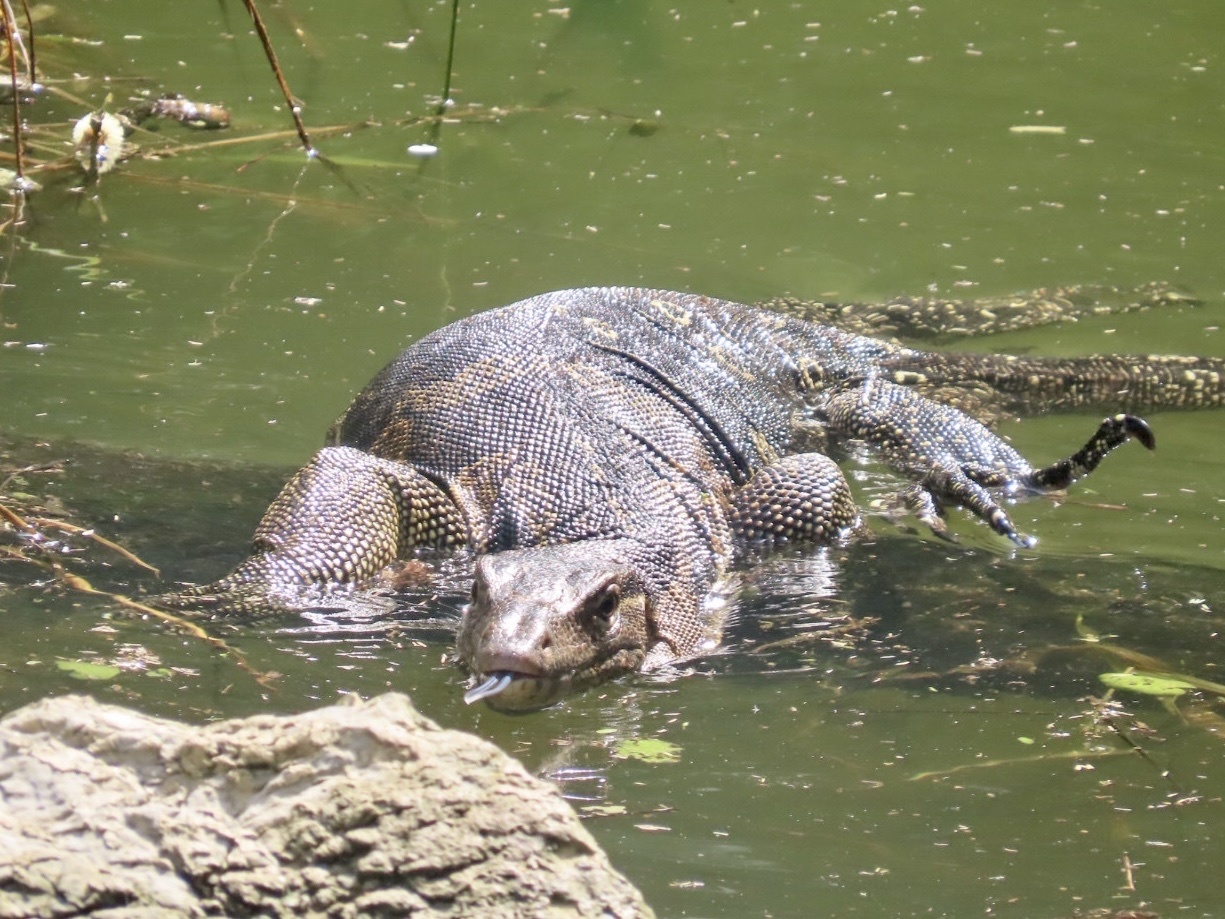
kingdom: Animalia
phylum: Chordata
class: Squamata
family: Varanidae
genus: Varanus
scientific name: Varanus salvator
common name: Common water monitor
